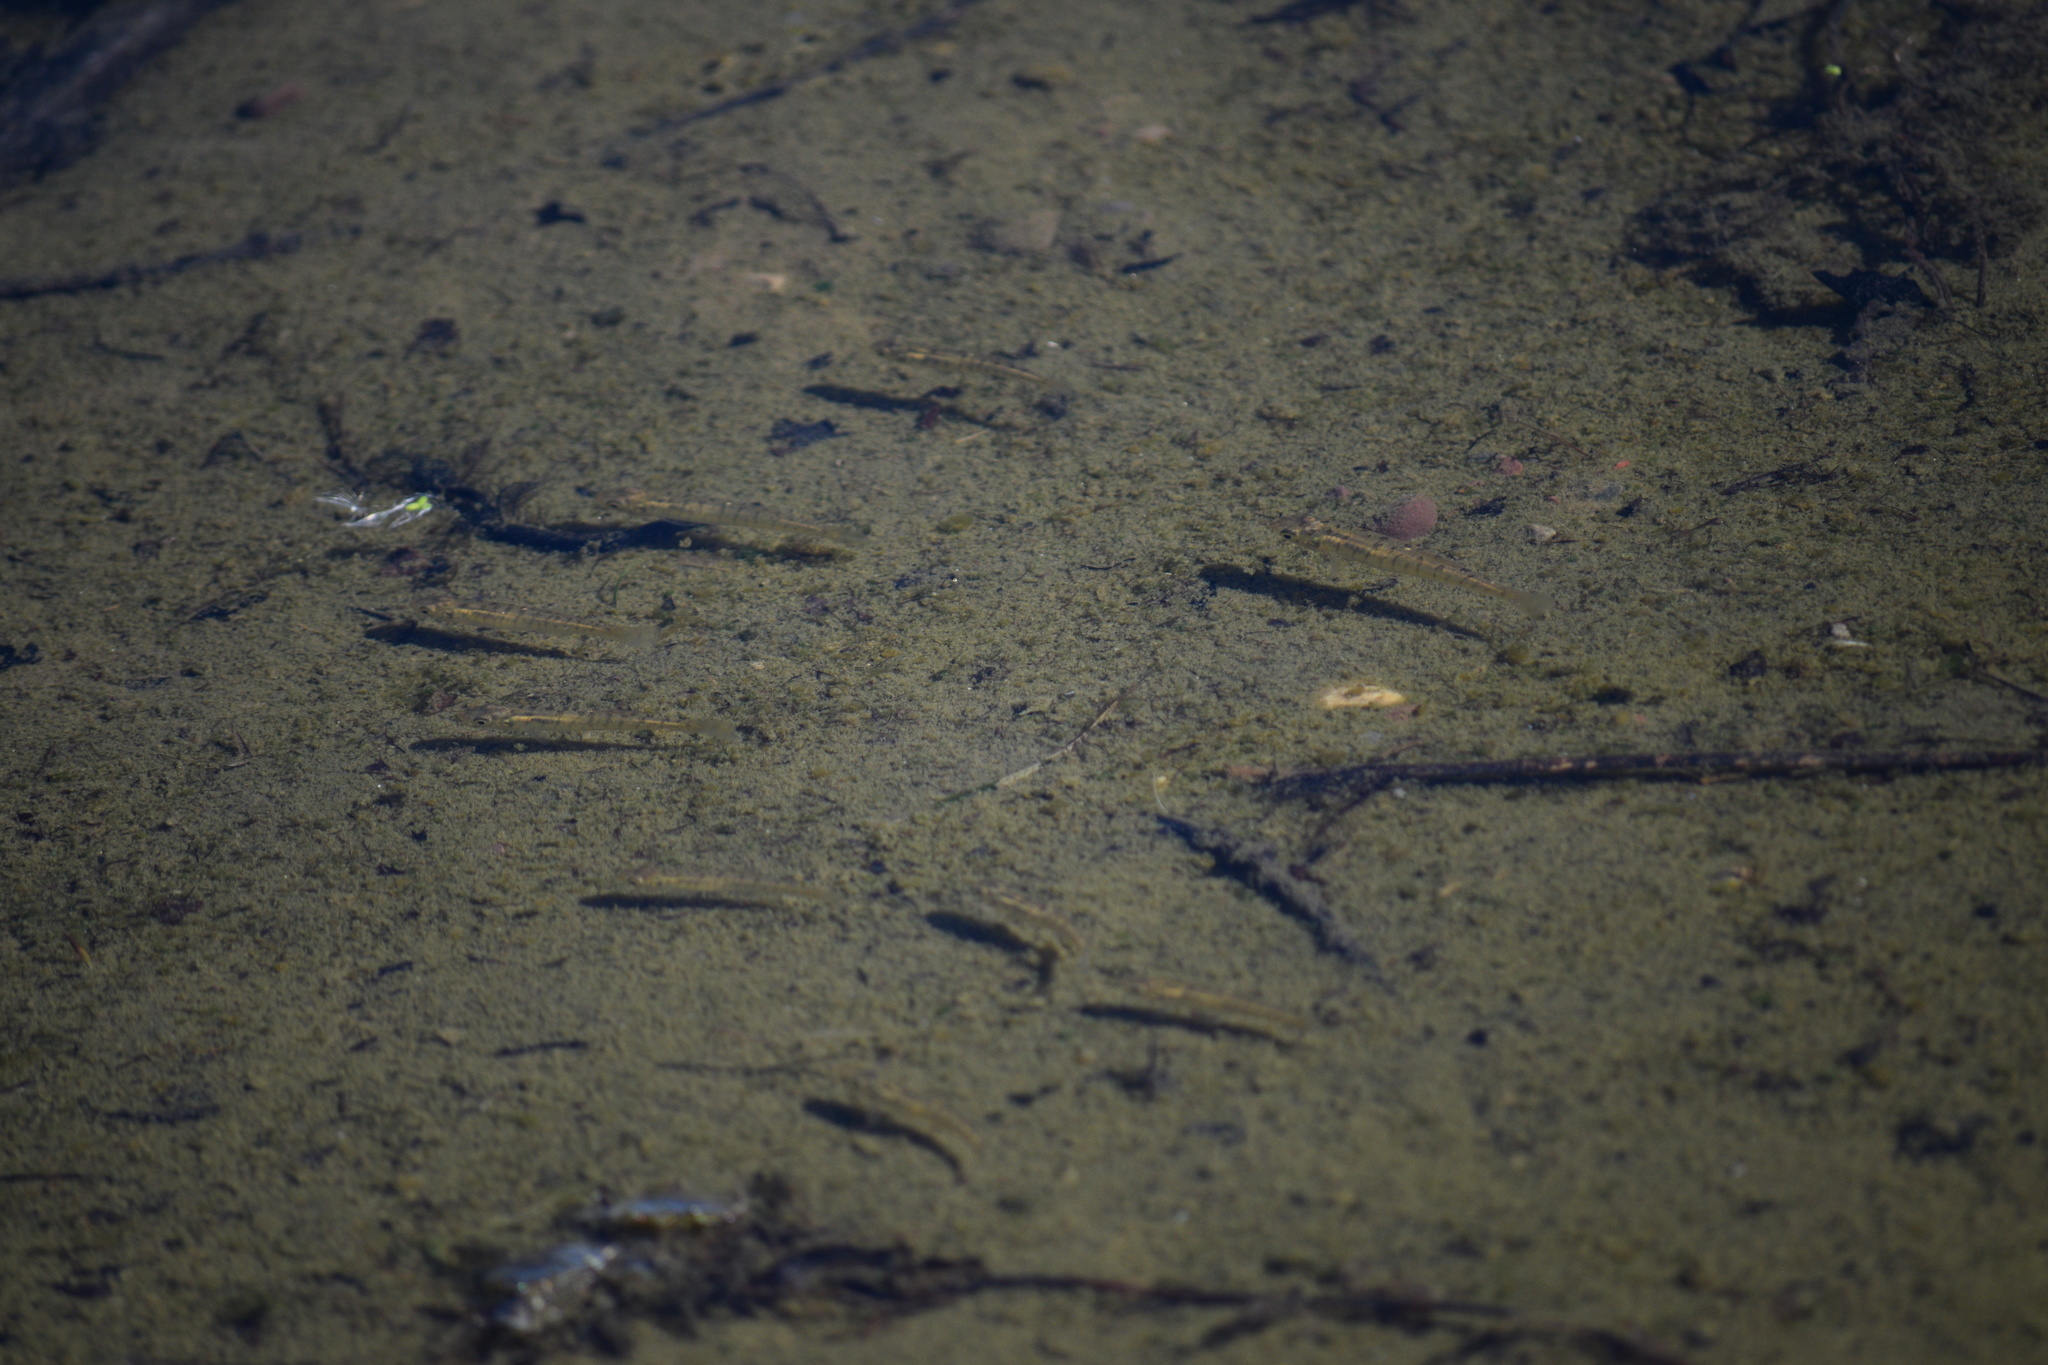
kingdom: Animalia
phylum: Chordata
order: Cyprinodontiformes
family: Fundulidae
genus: Fundulus
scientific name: Fundulus diaphanus
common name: Banded killifish
